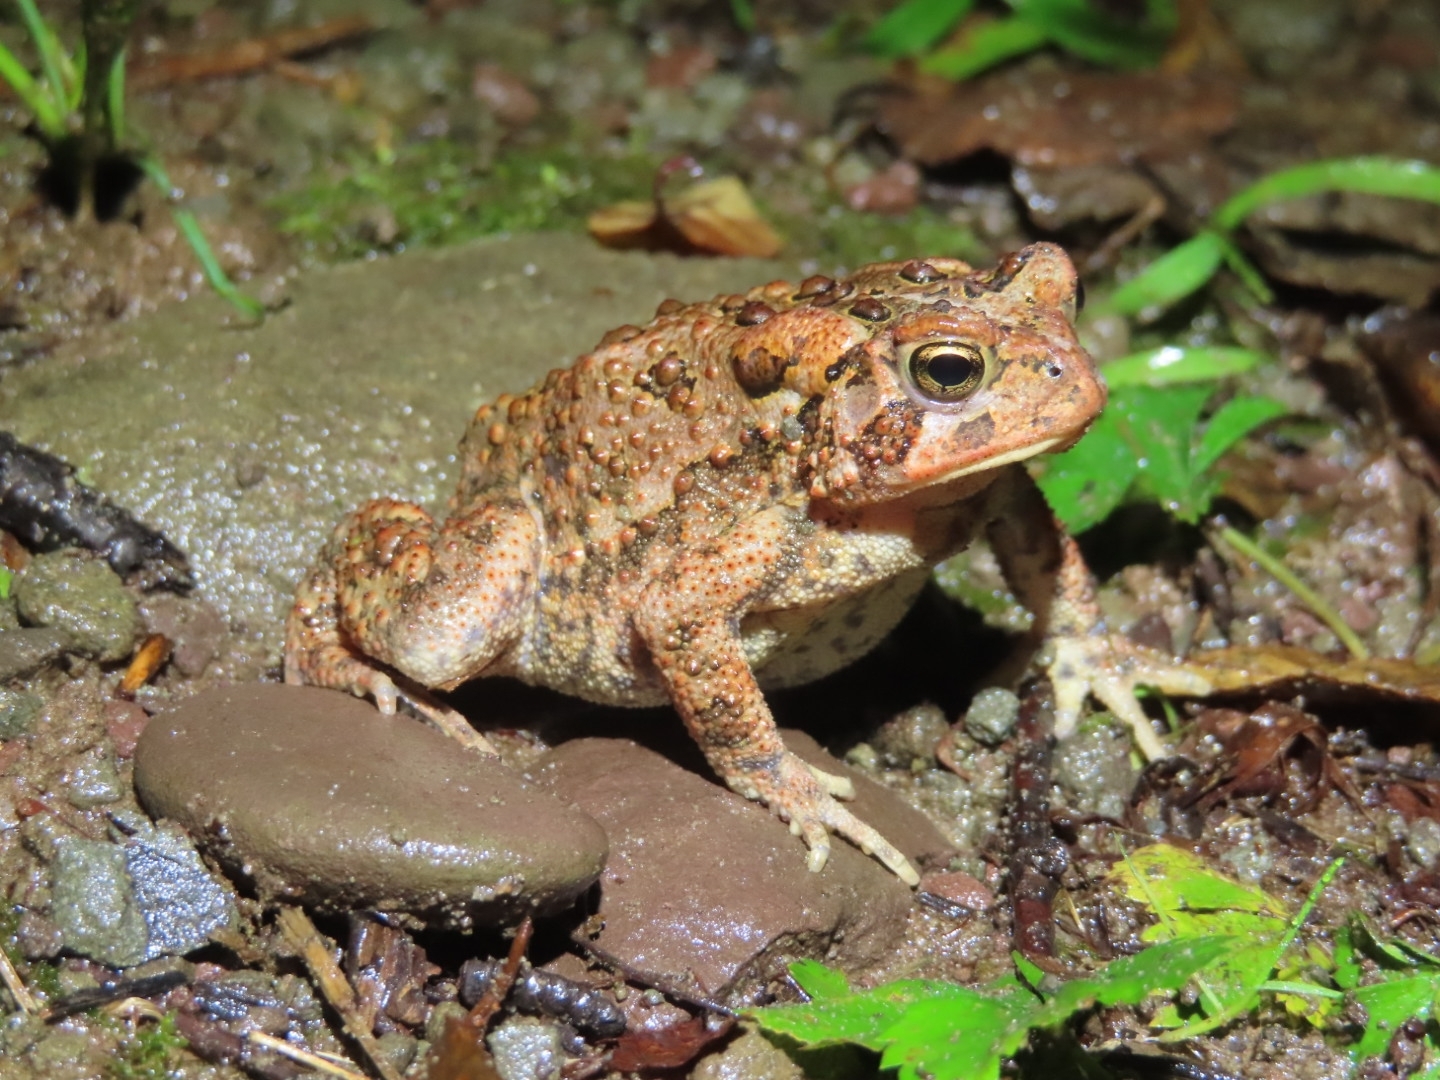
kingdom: Animalia
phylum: Chordata
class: Amphibia
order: Anura
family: Bufonidae
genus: Anaxyrus
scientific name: Anaxyrus americanus
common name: American toad
